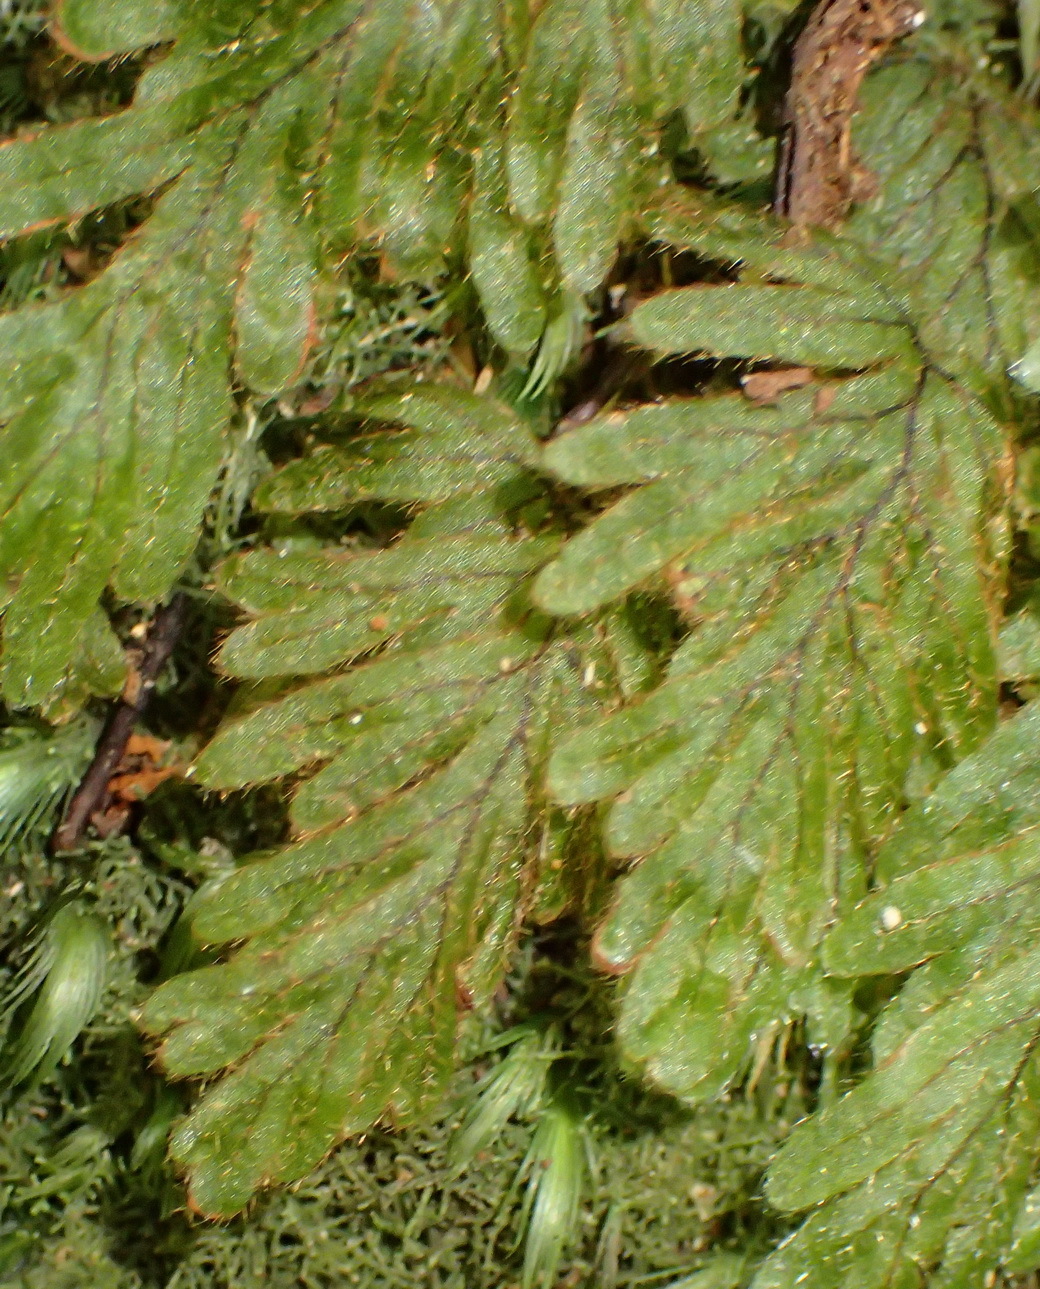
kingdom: Plantae
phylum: Tracheophyta
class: Polypodiopsida
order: Hymenophyllales
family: Hymenophyllaceae
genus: Hymenophyllum
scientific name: Hymenophyllum aeruginosum
